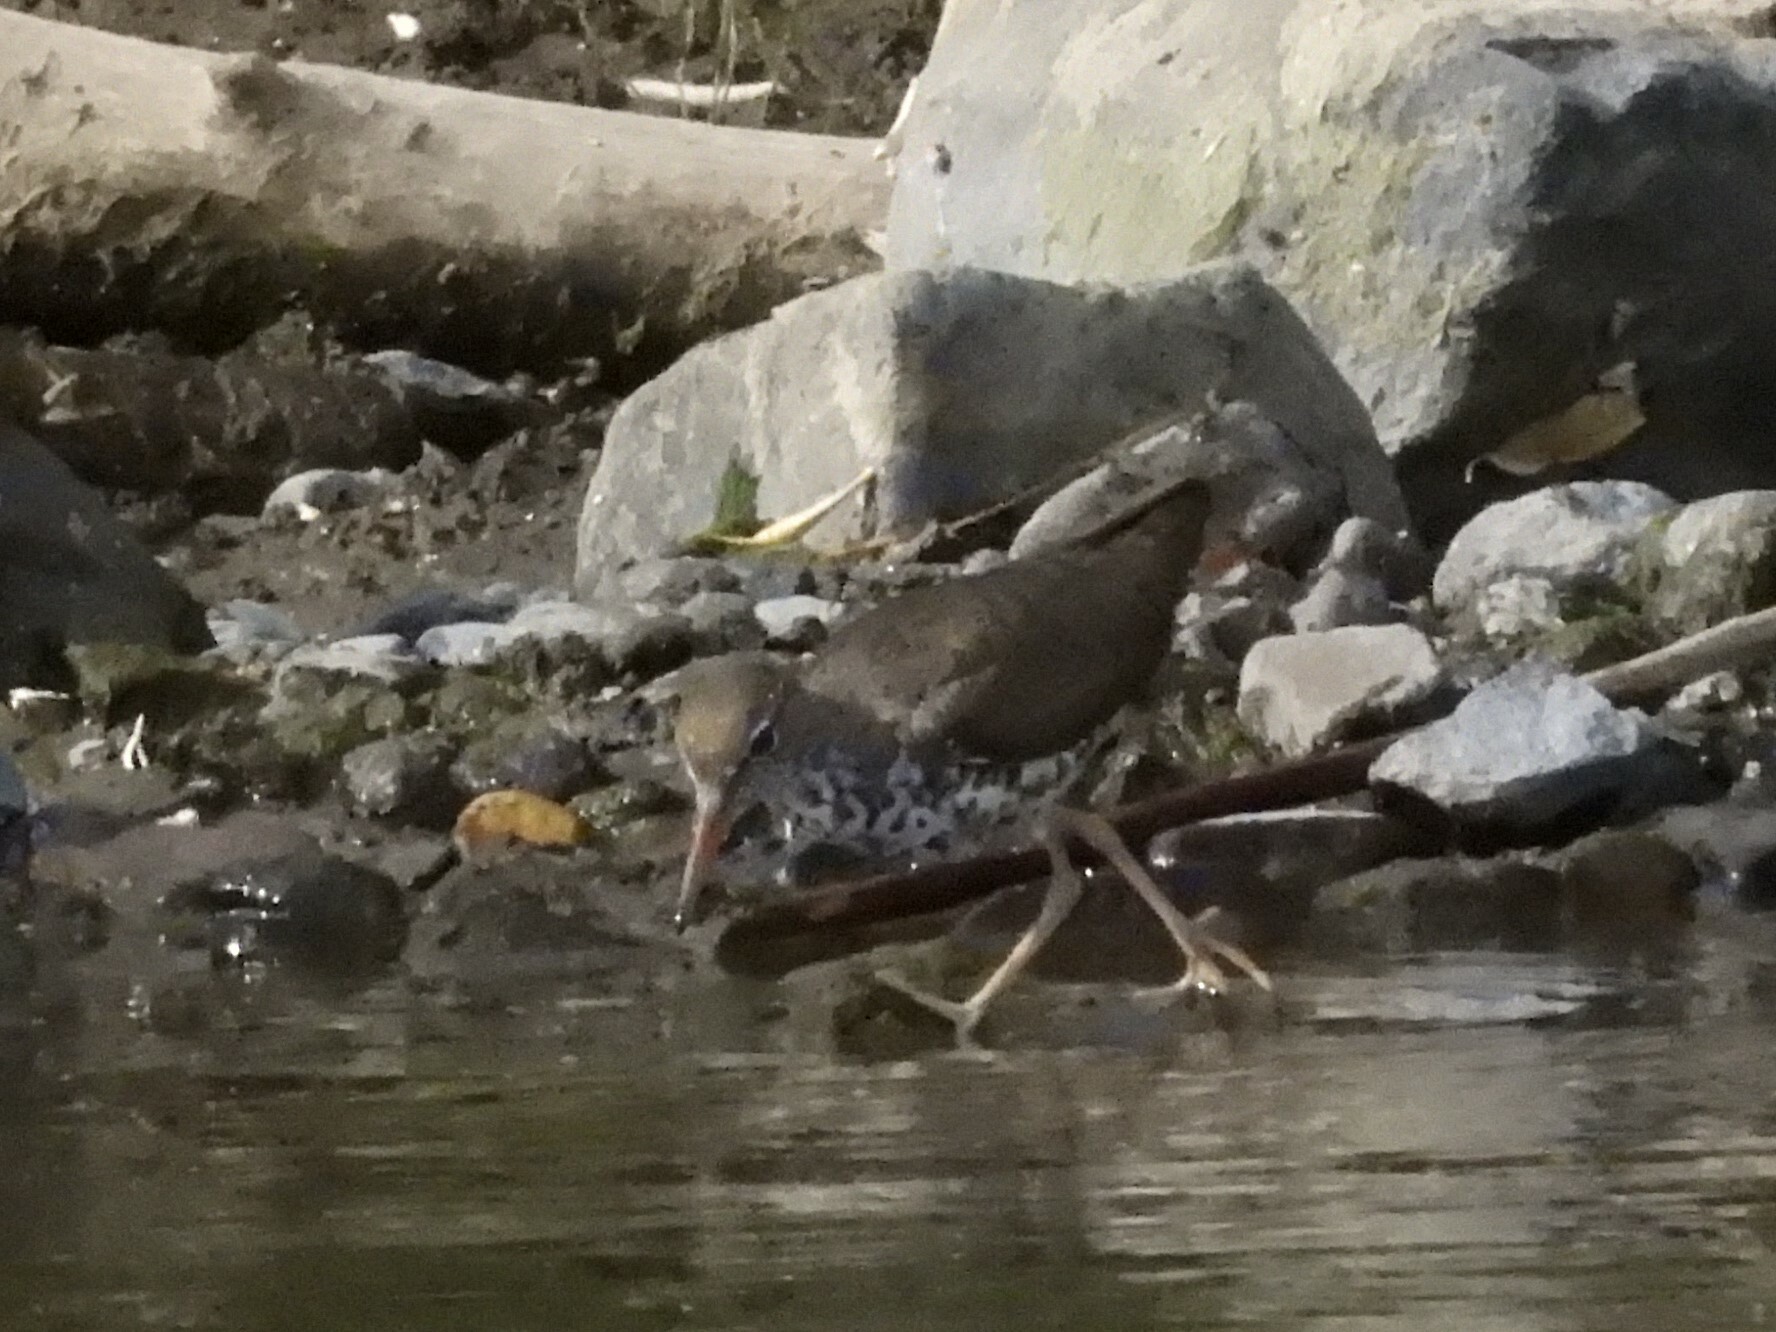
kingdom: Animalia
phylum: Chordata
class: Aves
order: Charadriiformes
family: Scolopacidae
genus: Actitis
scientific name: Actitis macularius
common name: Spotted sandpiper
